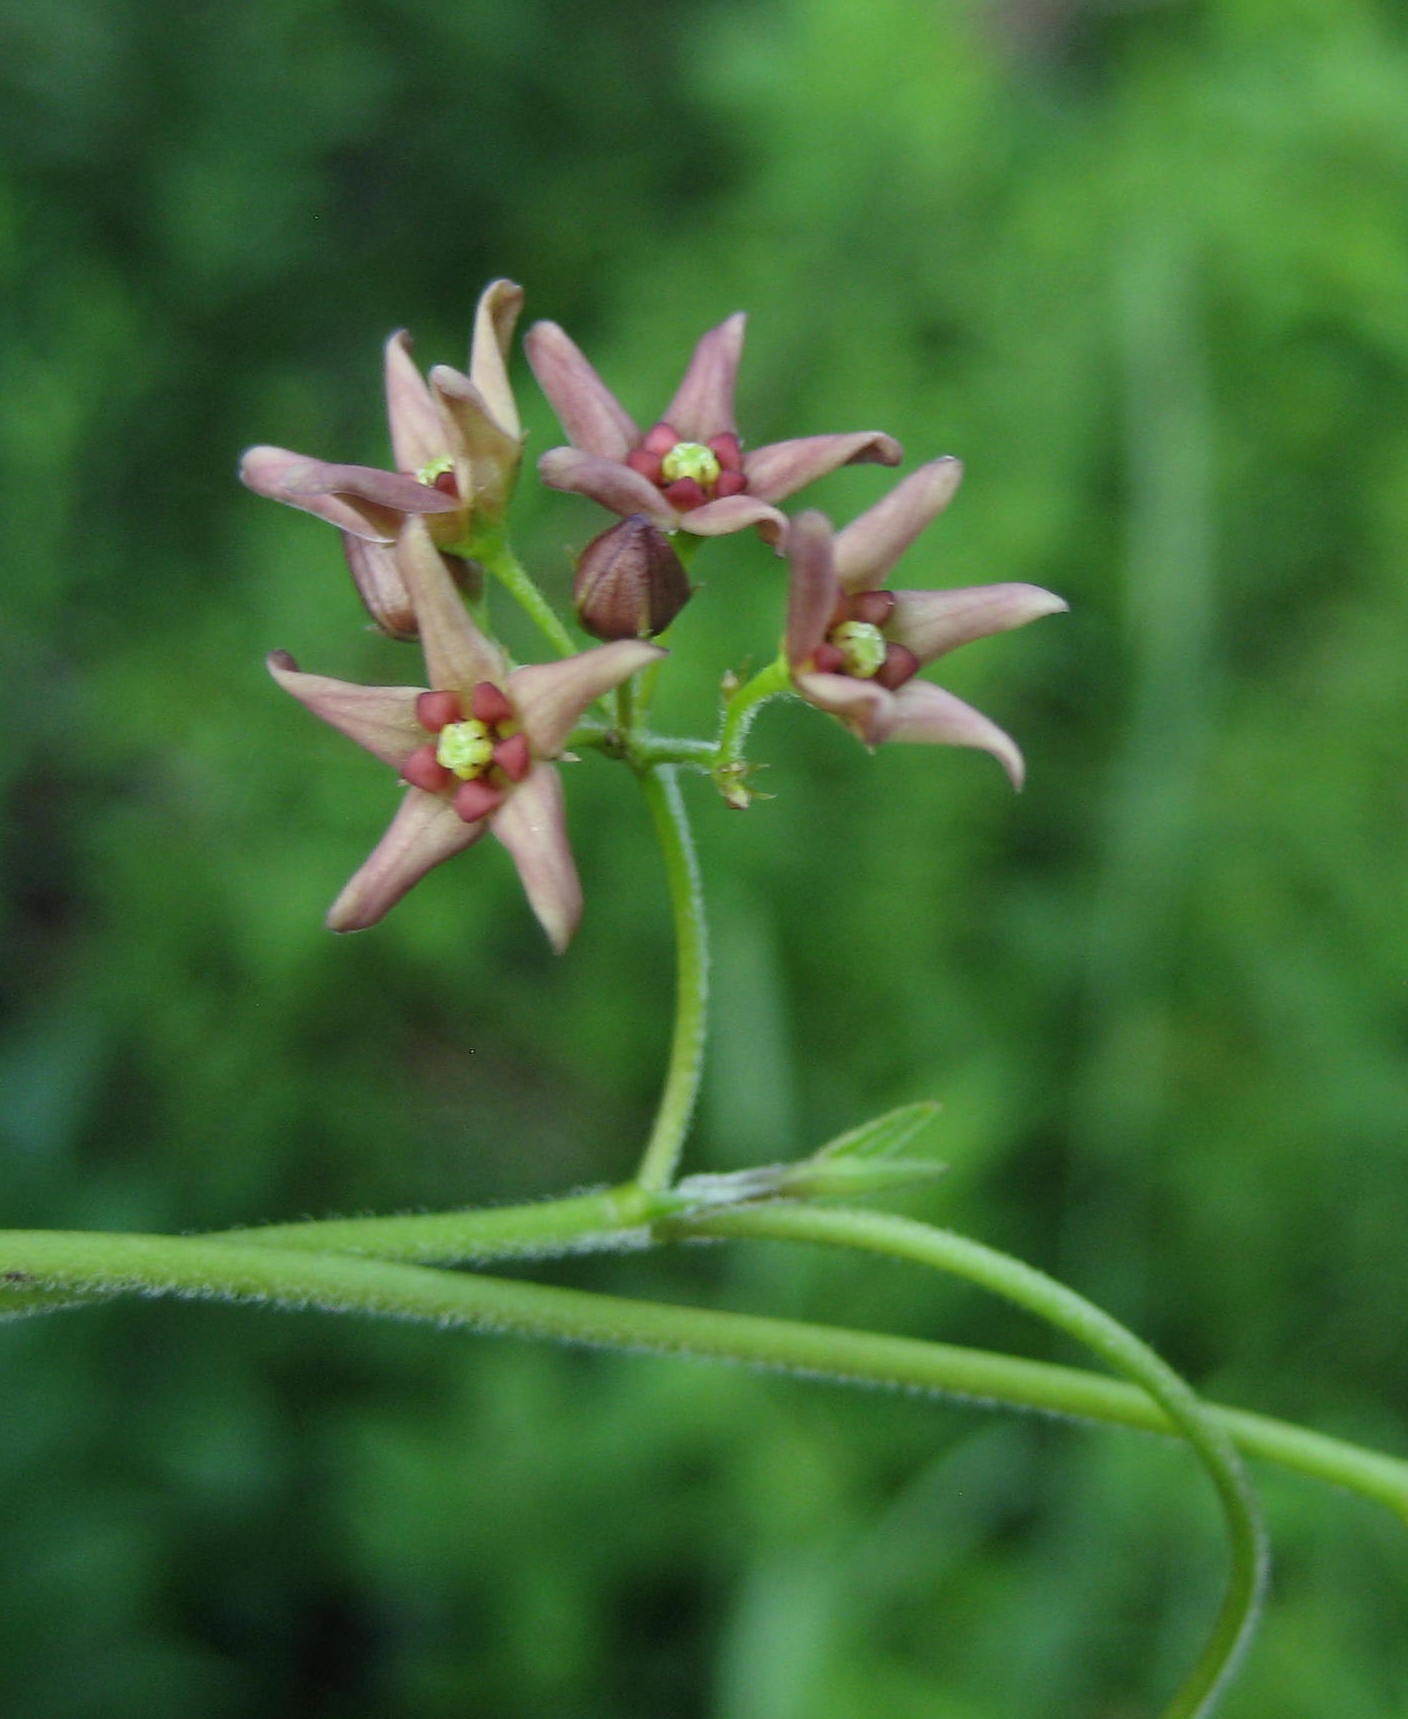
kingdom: Plantae
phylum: Tracheophyta
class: Magnoliopsida
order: Gentianales
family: Apocynaceae
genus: Vincetoxicum
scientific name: Vincetoxicum rossicum
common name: Dog-strangling vine
